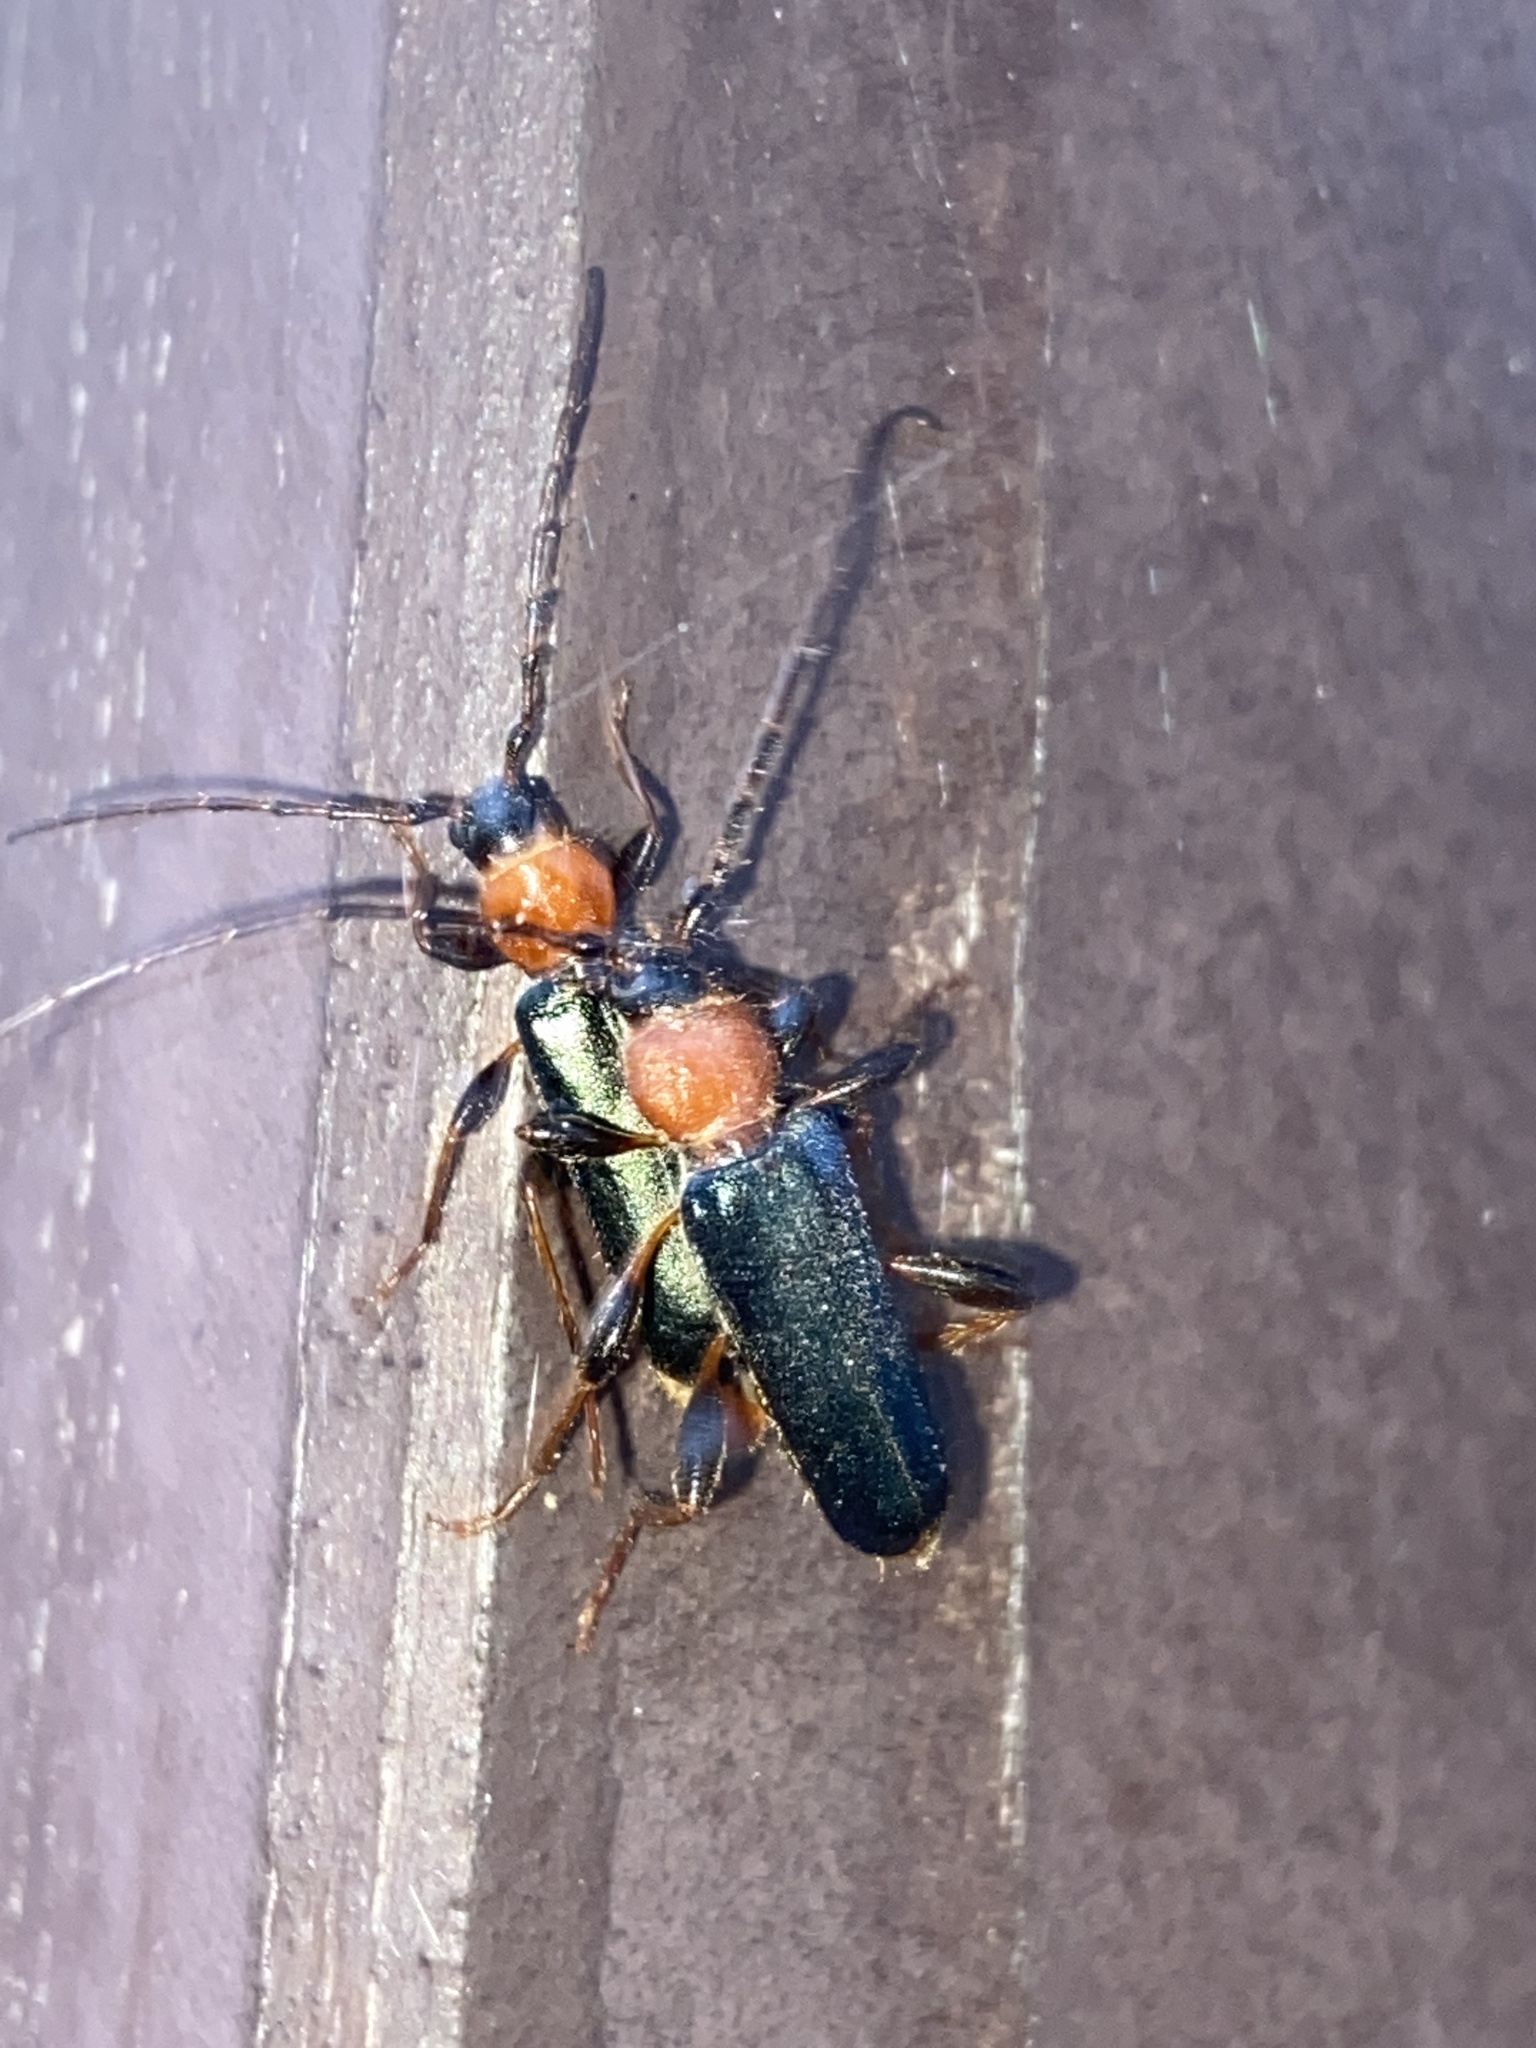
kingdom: Animalia
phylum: Arthropoda
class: Insecta
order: Coleoptera
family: Cerambycidae
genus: Phymatodes
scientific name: Phymatodes testaceus
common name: Long-horned beetle
